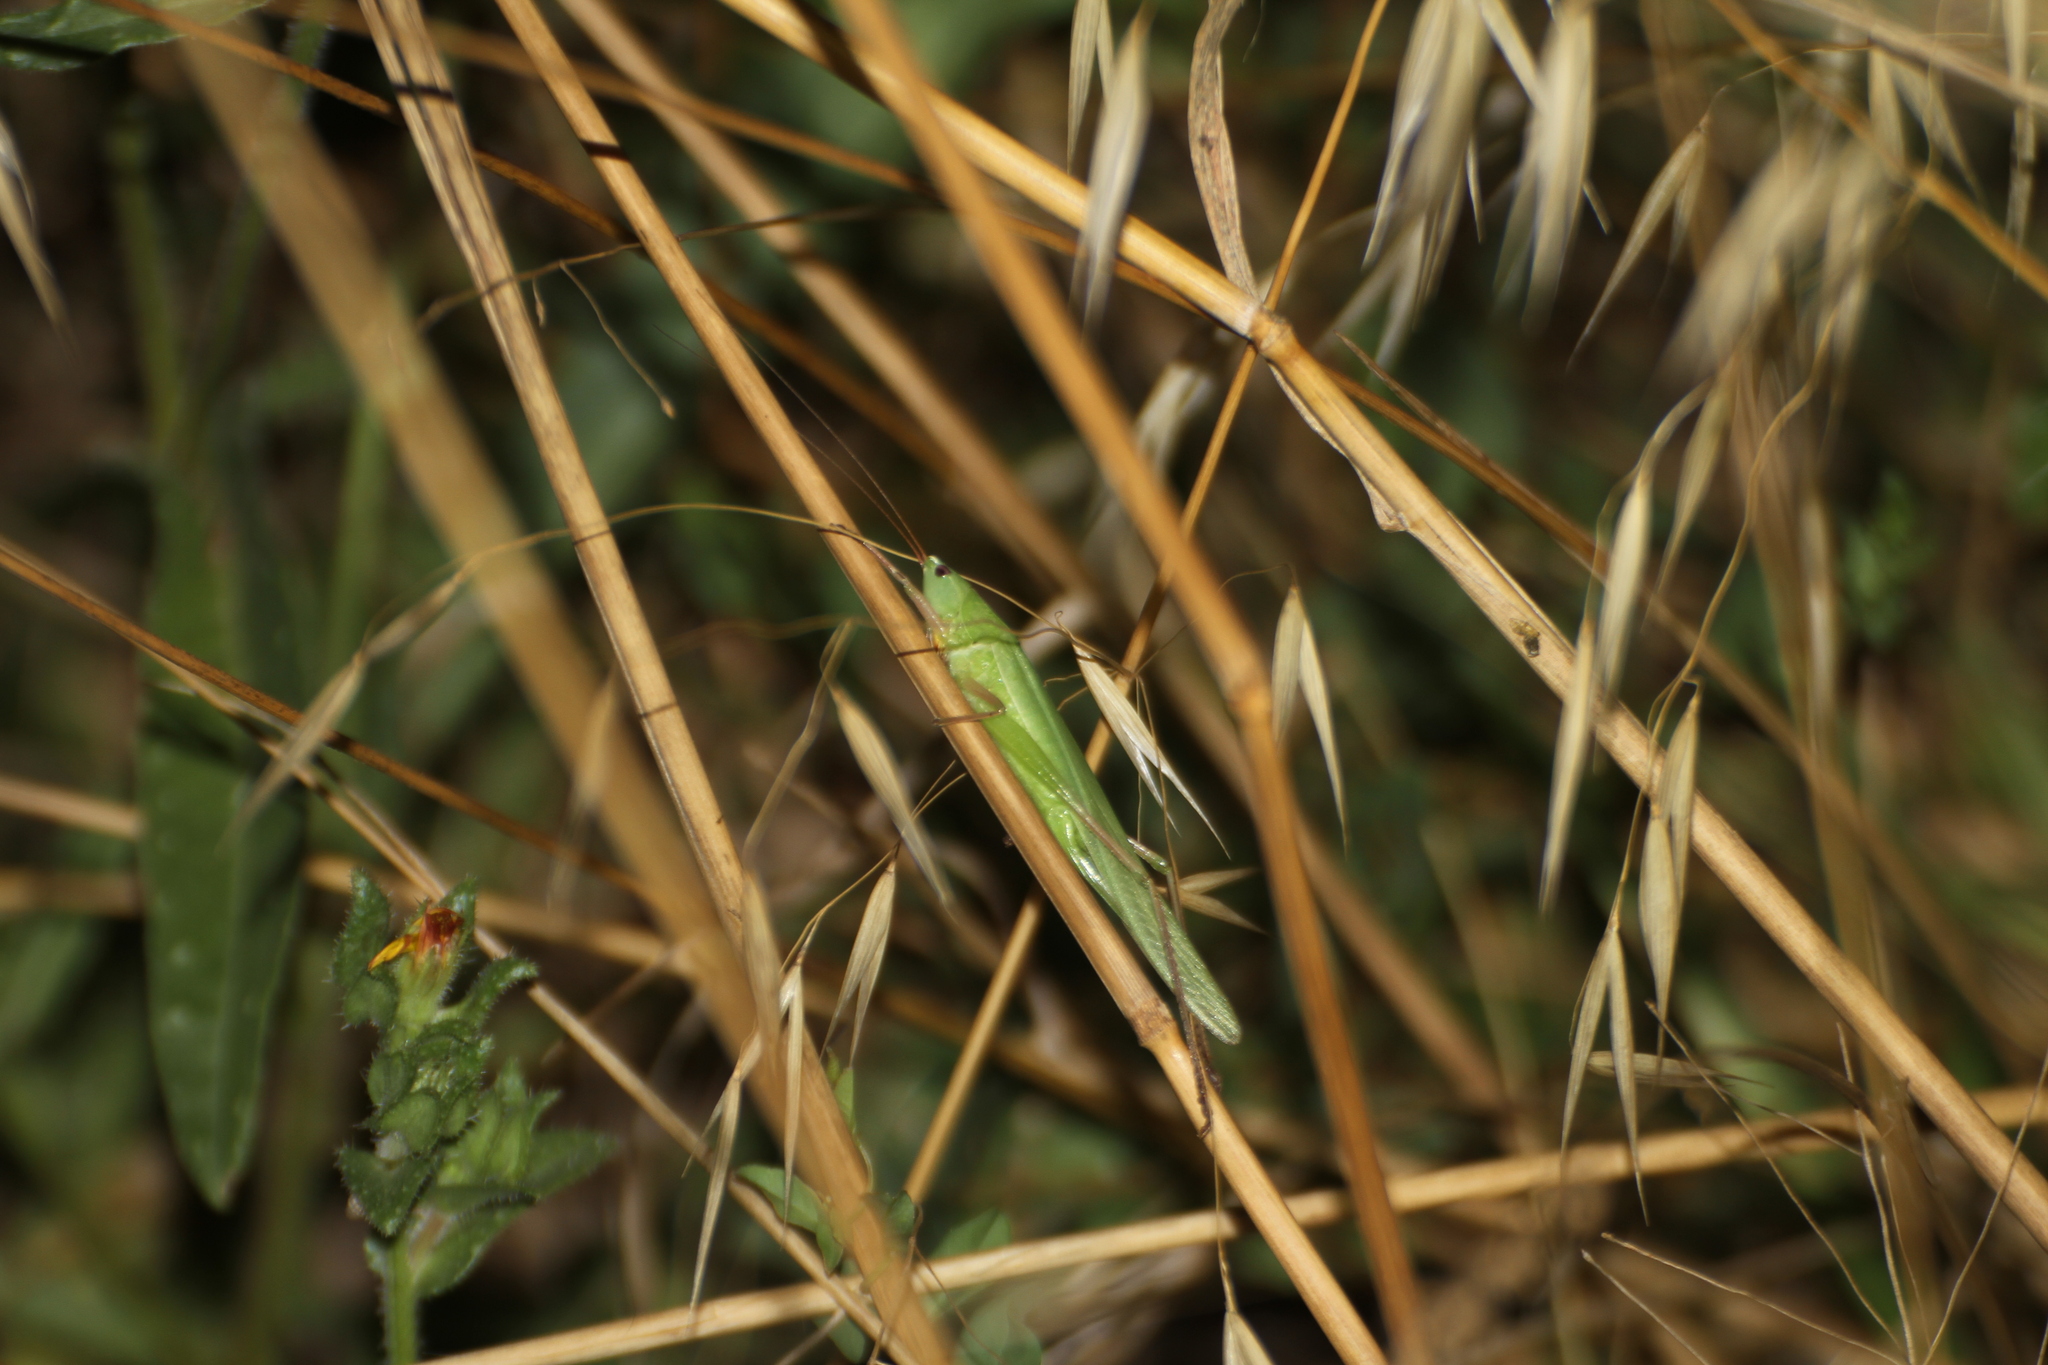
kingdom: Animalia
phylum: Arthropoda
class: Insecta
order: Orthoptera
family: Tettigoniidae
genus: Ruspolia
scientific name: Ruspolia nitidula
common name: Large conehead
